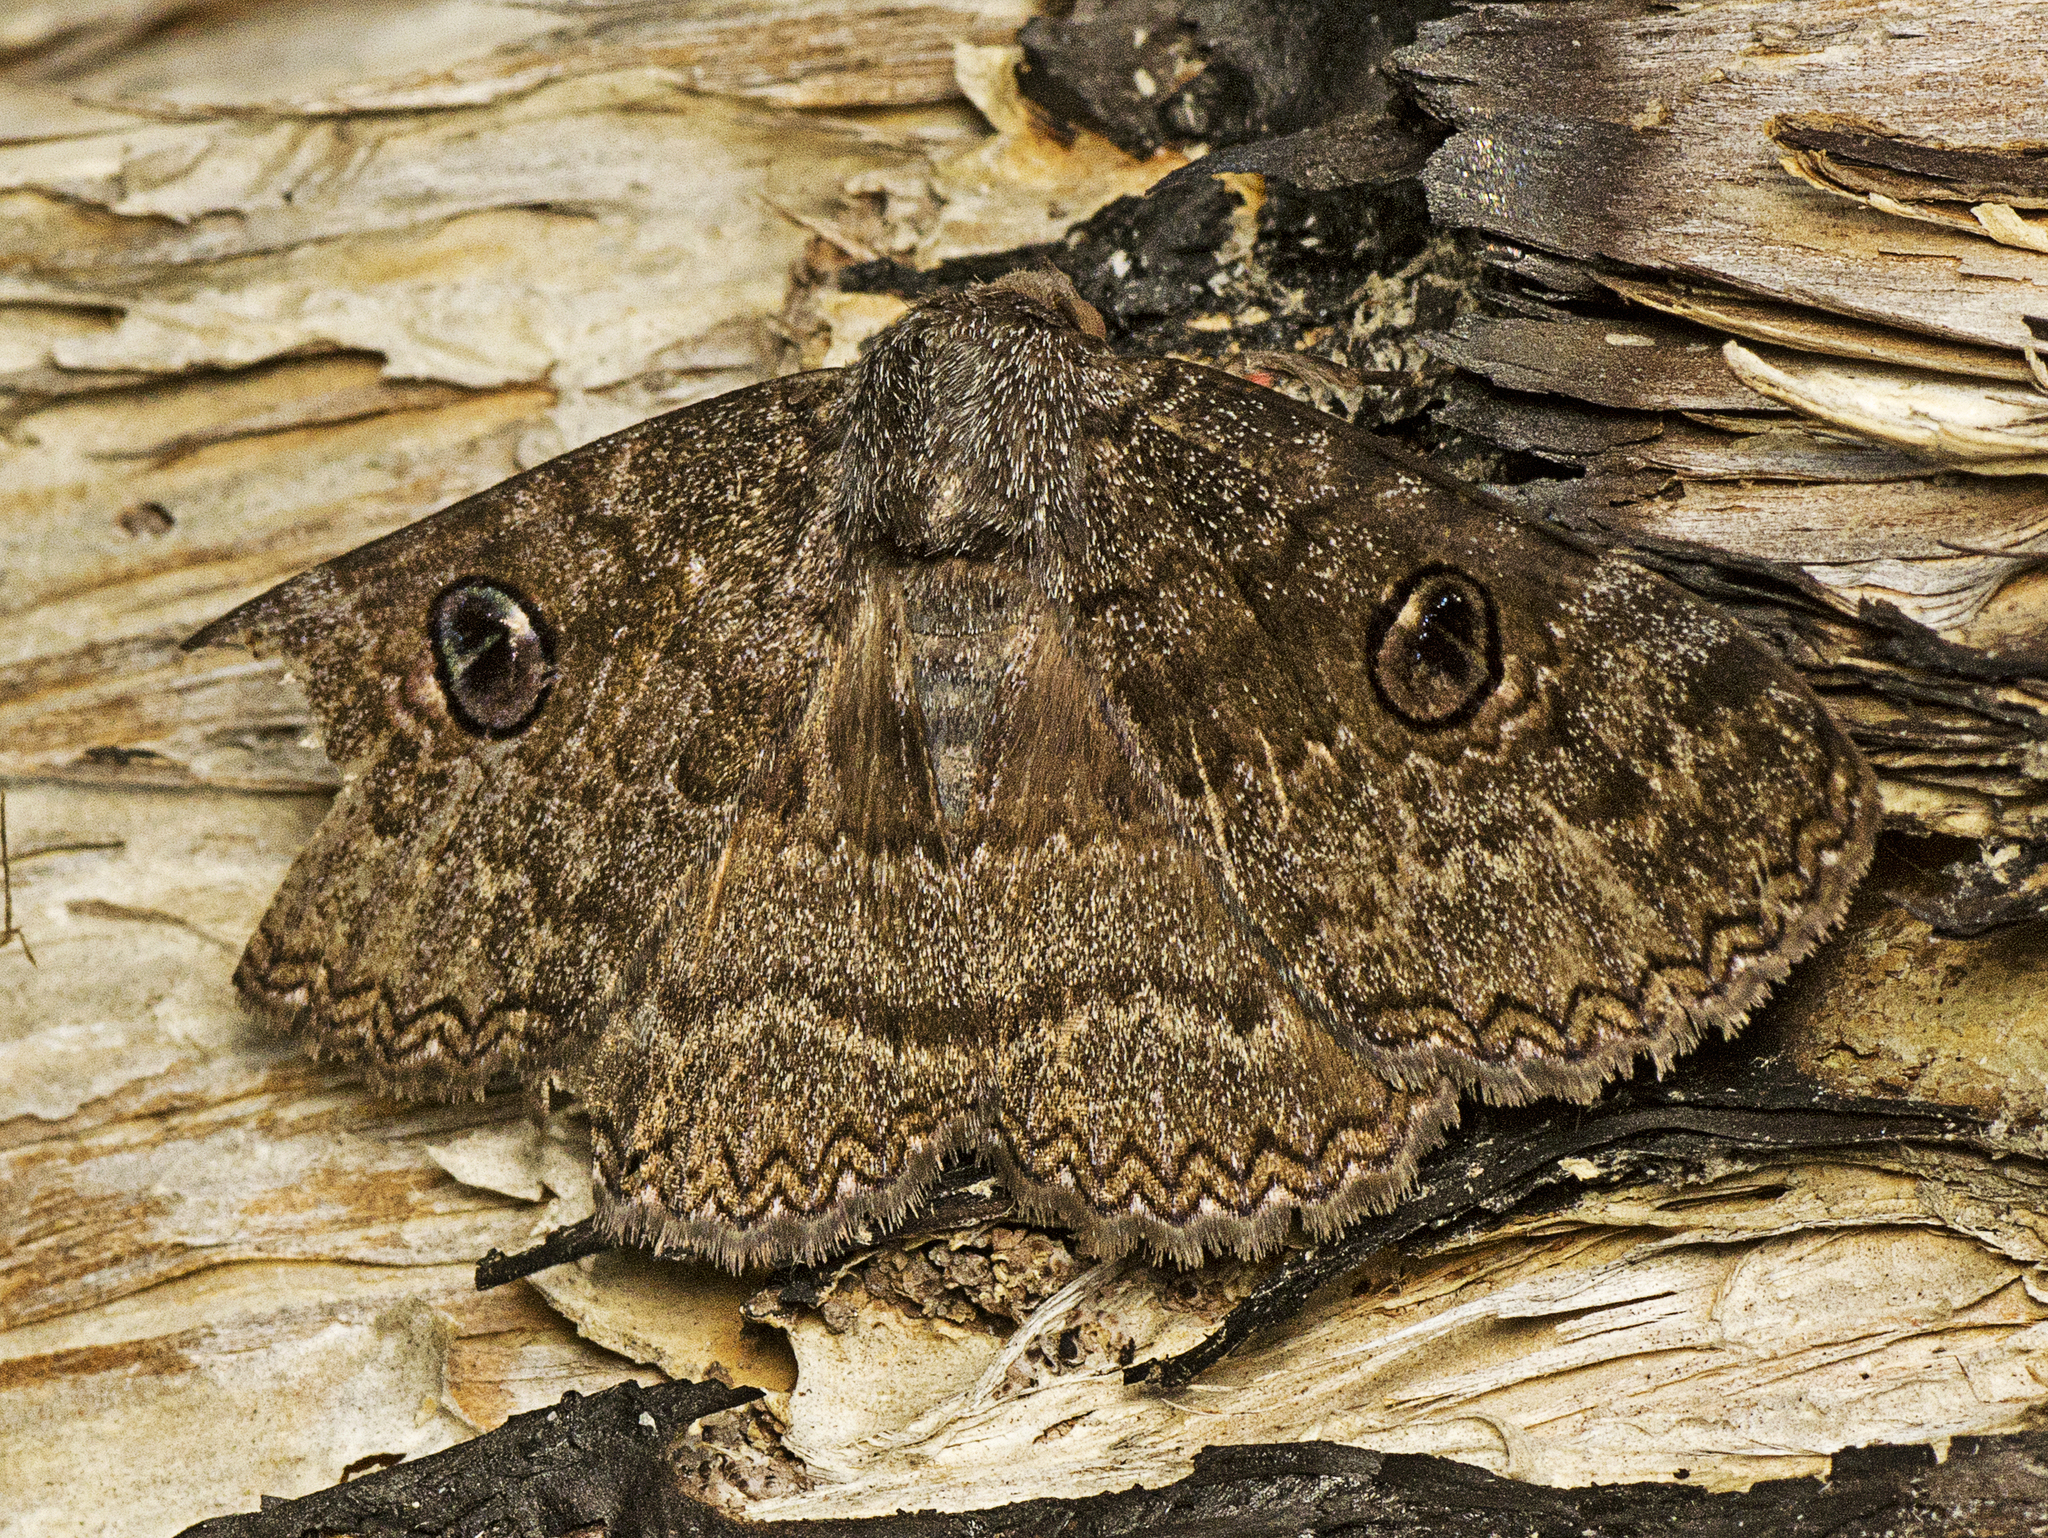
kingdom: Animalia
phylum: Arthropoda
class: Insecta
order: Lepidoptera
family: Erebidae
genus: Donuca
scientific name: Donuca castalia
